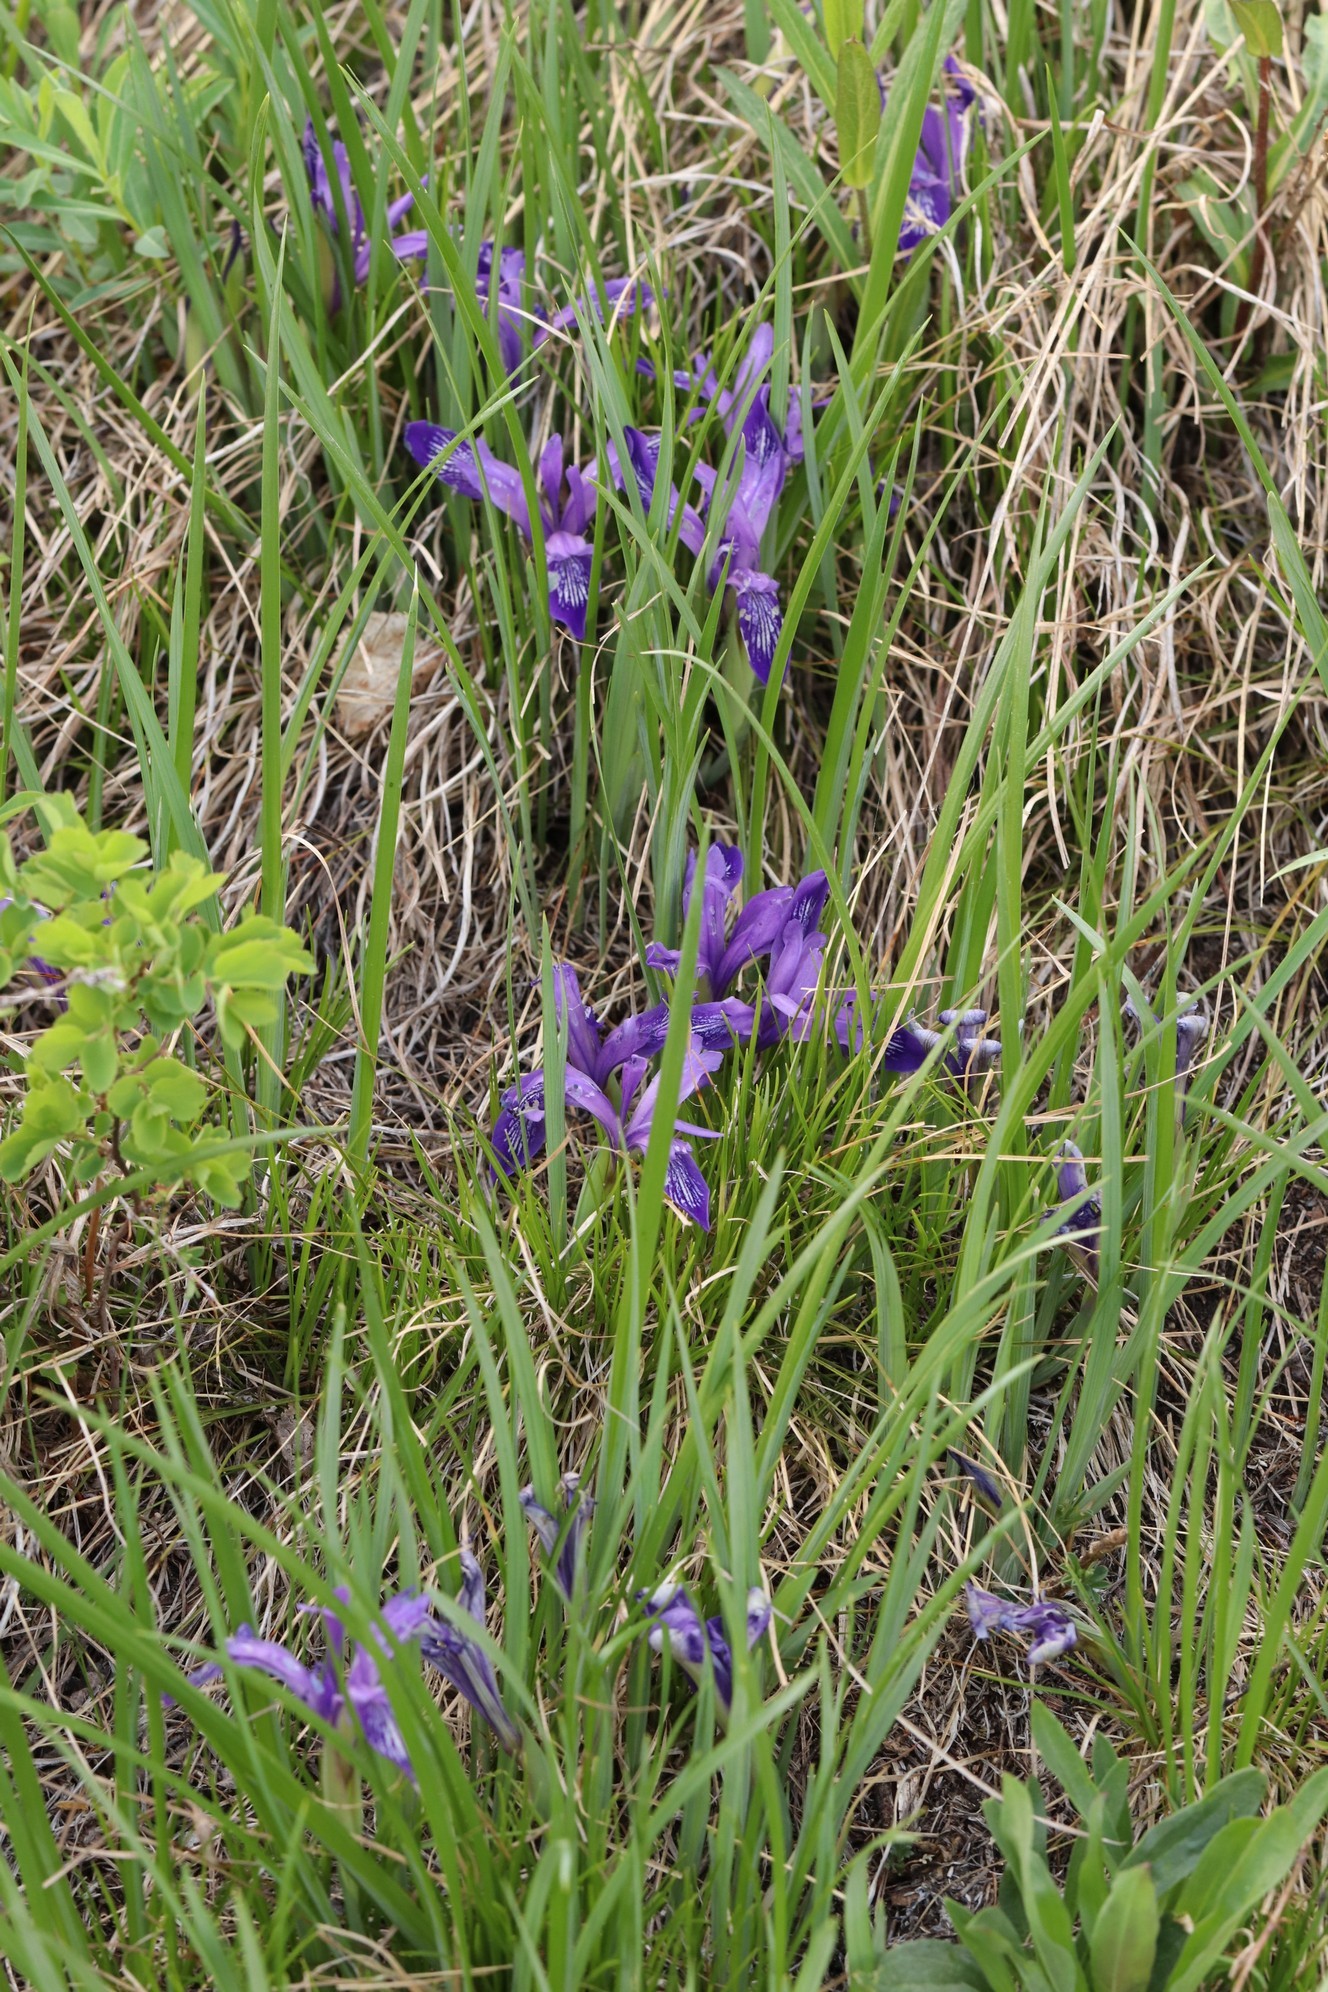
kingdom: Plantae
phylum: Tracheophyta
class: Liliopsida
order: Asparagales
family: Iridaceae
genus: Iris
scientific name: Iris ruthenica
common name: Purple-bract iris
